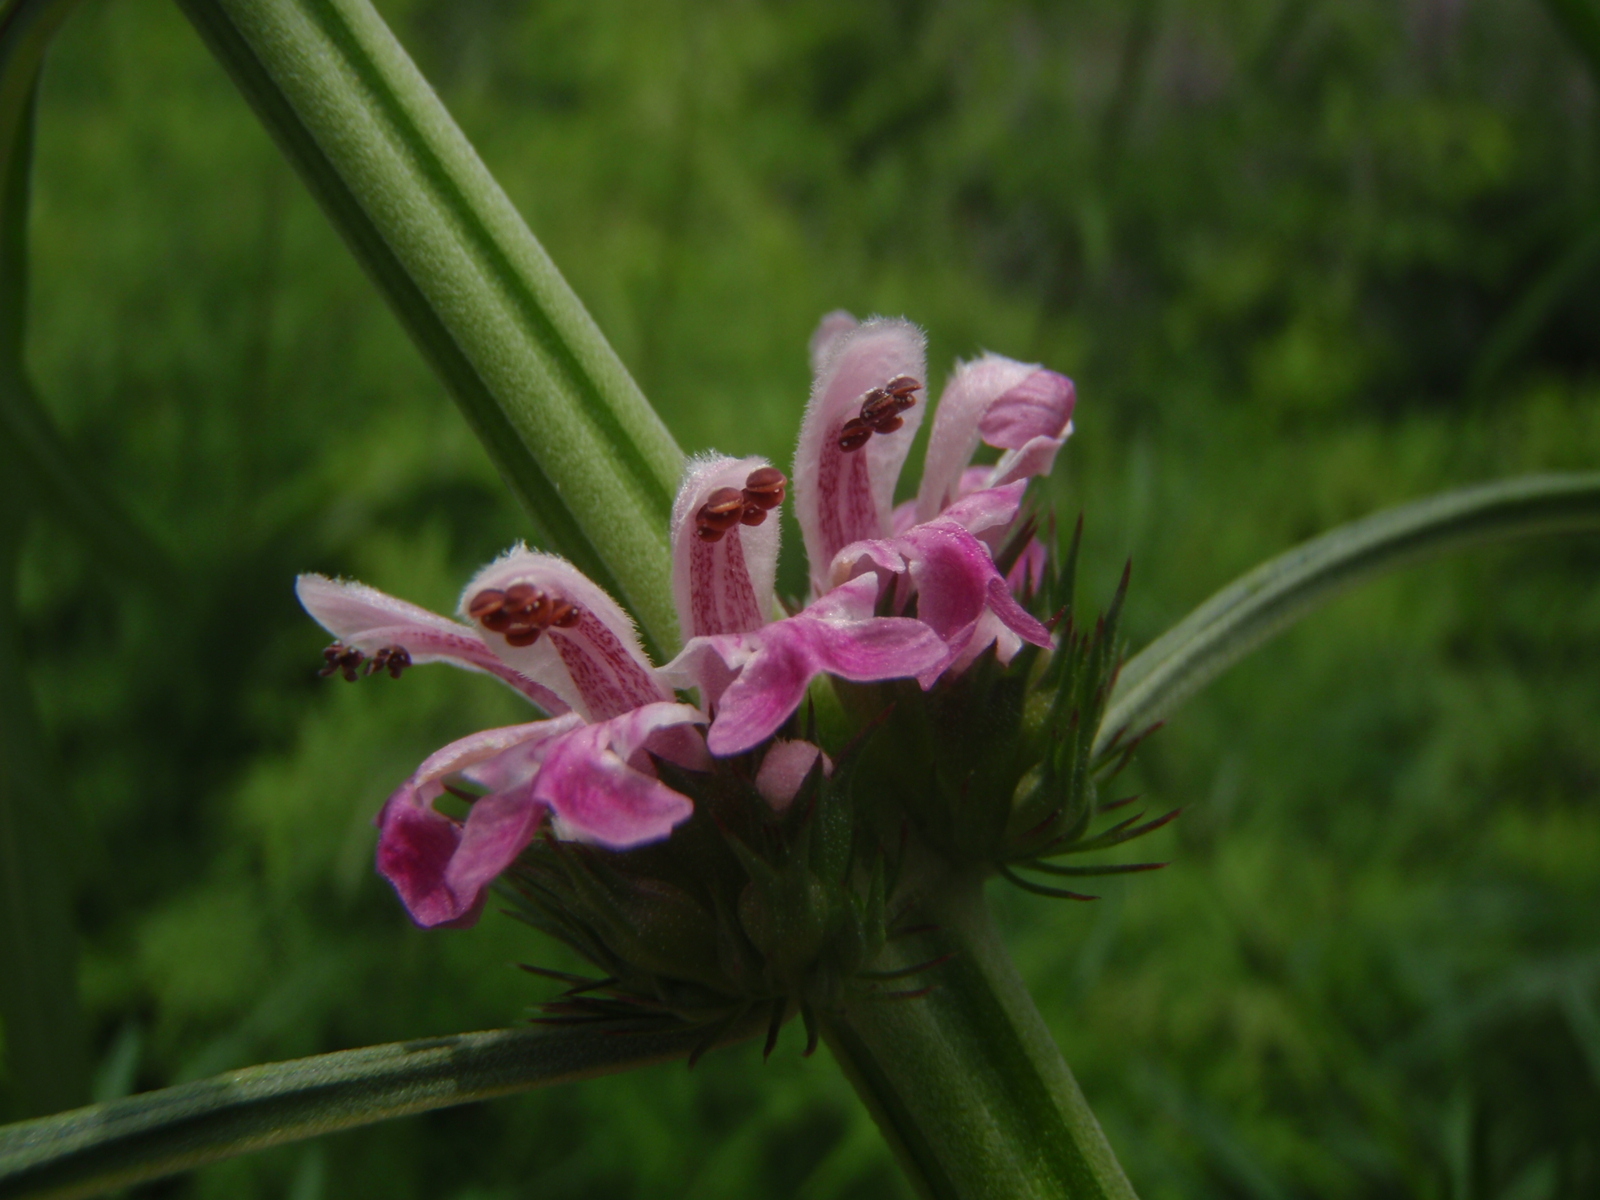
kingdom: Plantae
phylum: Tracheophyta
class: Magnoliopsida
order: Lamiales
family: Lamiaceae
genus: Leonurus
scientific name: Leonurus japonicus
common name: Honeyweed
